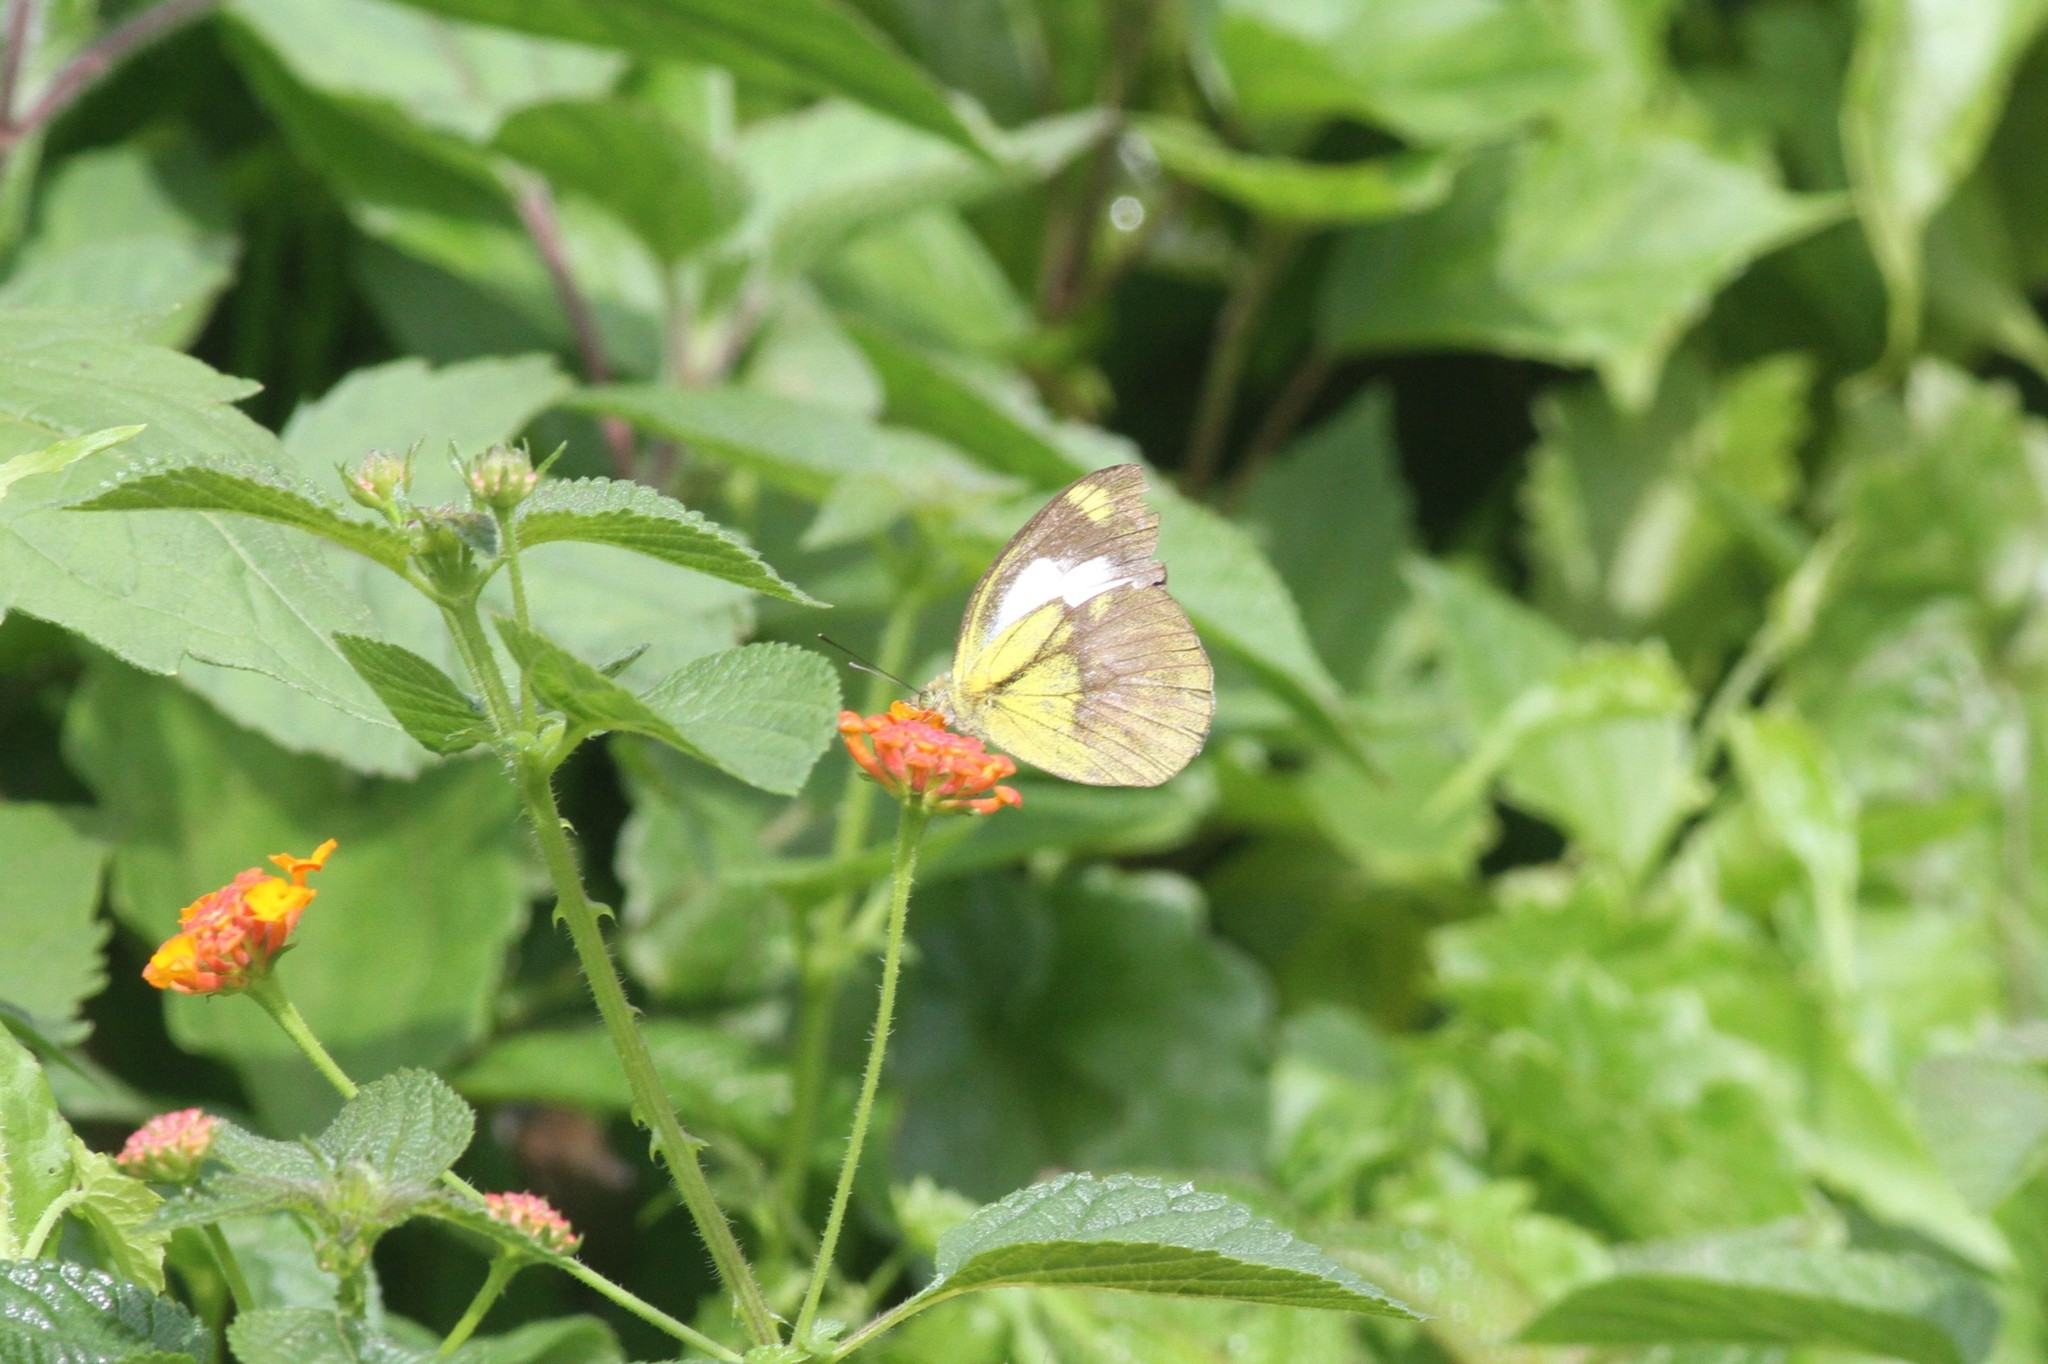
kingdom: Animalia
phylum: Arthropoda
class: Insecta
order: Lepidoptera
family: Pieridae
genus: Cepora
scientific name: Cepora nadina
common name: Lesser gull
